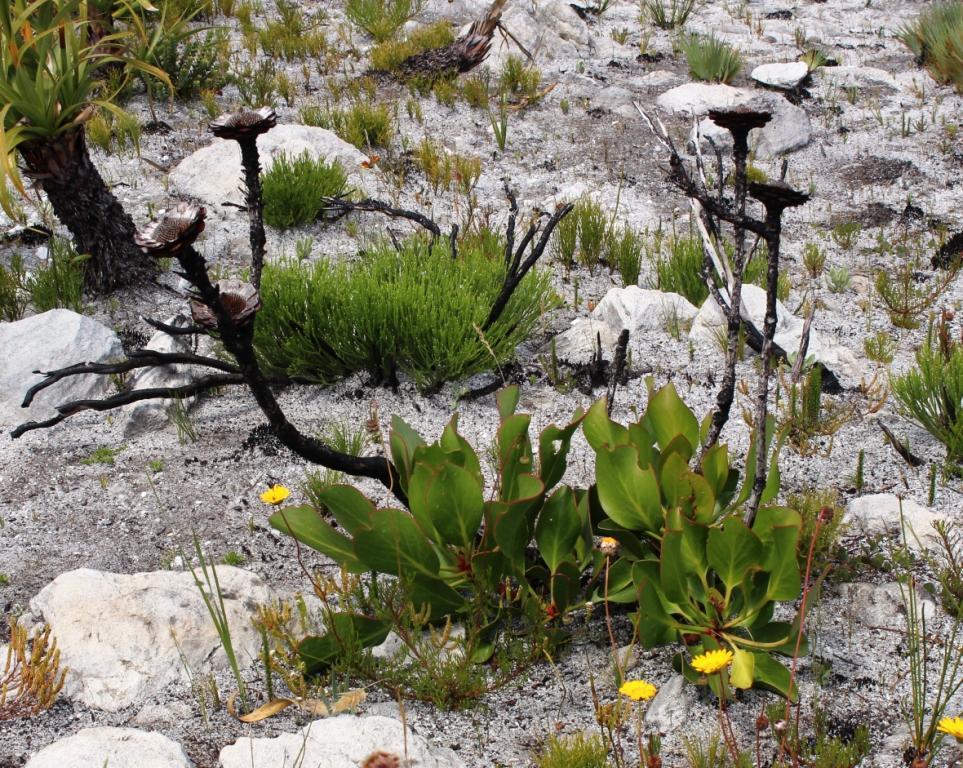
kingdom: Plantae
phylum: Tracheophyta
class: Magnoliopsida
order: Proteales
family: Proteaceae
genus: Protea
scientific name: Protea cynaroides
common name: King protea
